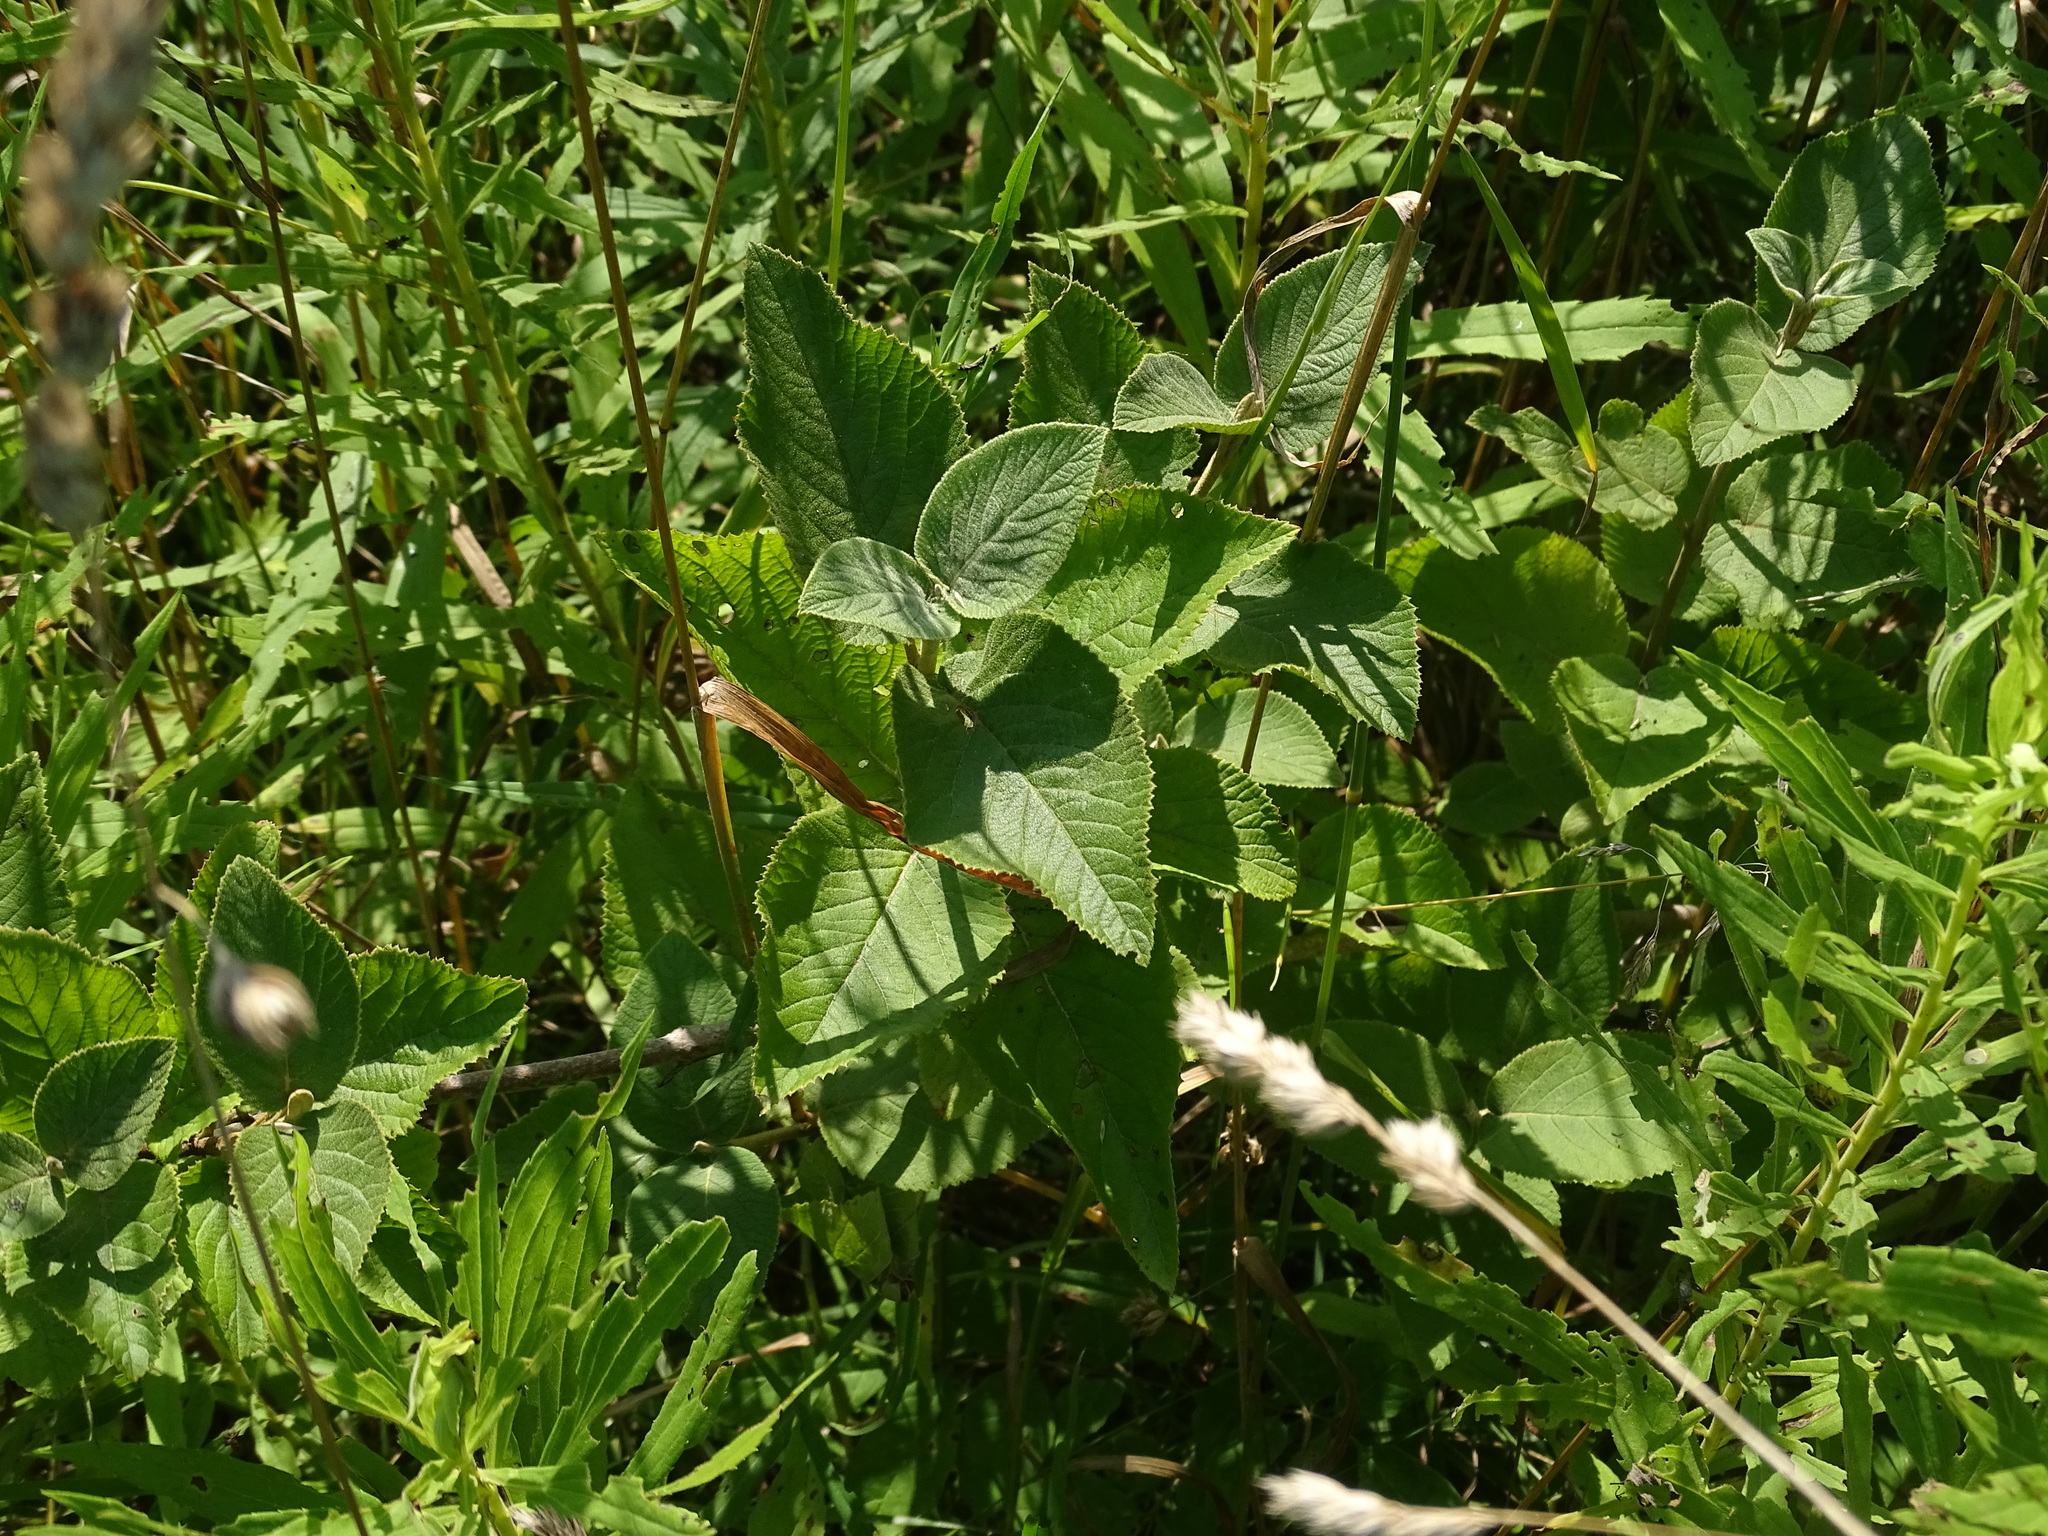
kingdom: Plantae
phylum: Tracheophyta
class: Magnoliopsida
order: Dipsacales
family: Viburnaceae
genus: Viburnum
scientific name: Viburnum lantana
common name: Wayfaring tree
